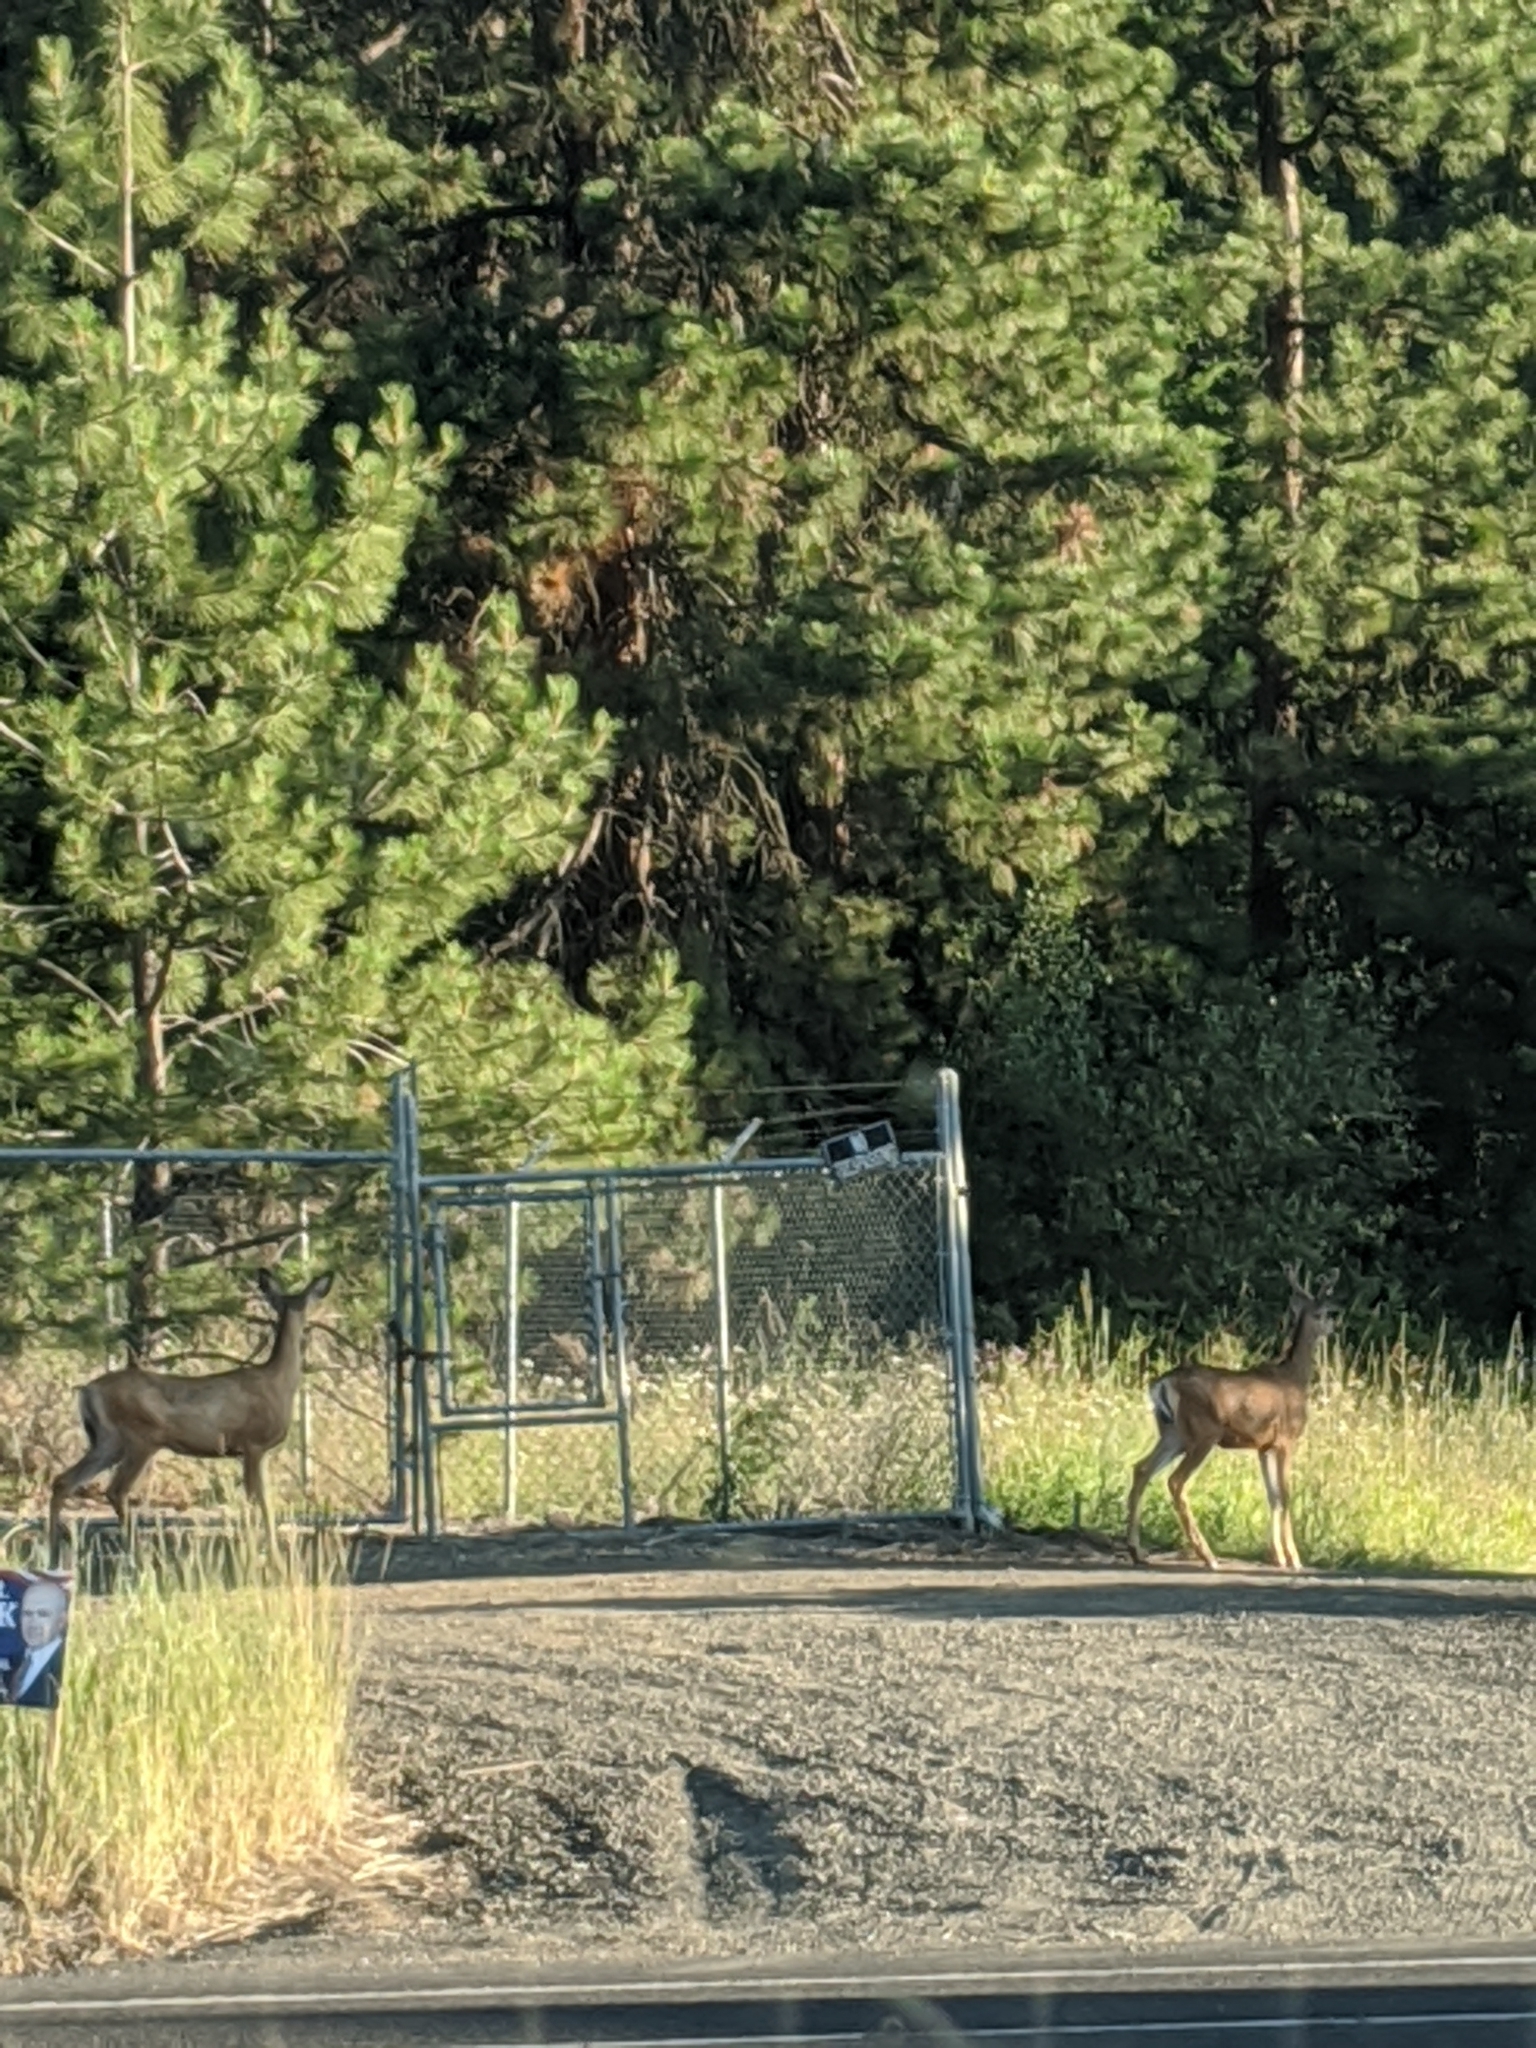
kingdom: Animalia
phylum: Chordata
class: Mammalia
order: Artiodactyla
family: Cervidae
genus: Odocoileus
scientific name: Odocoileus hemionus
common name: Mule deer
